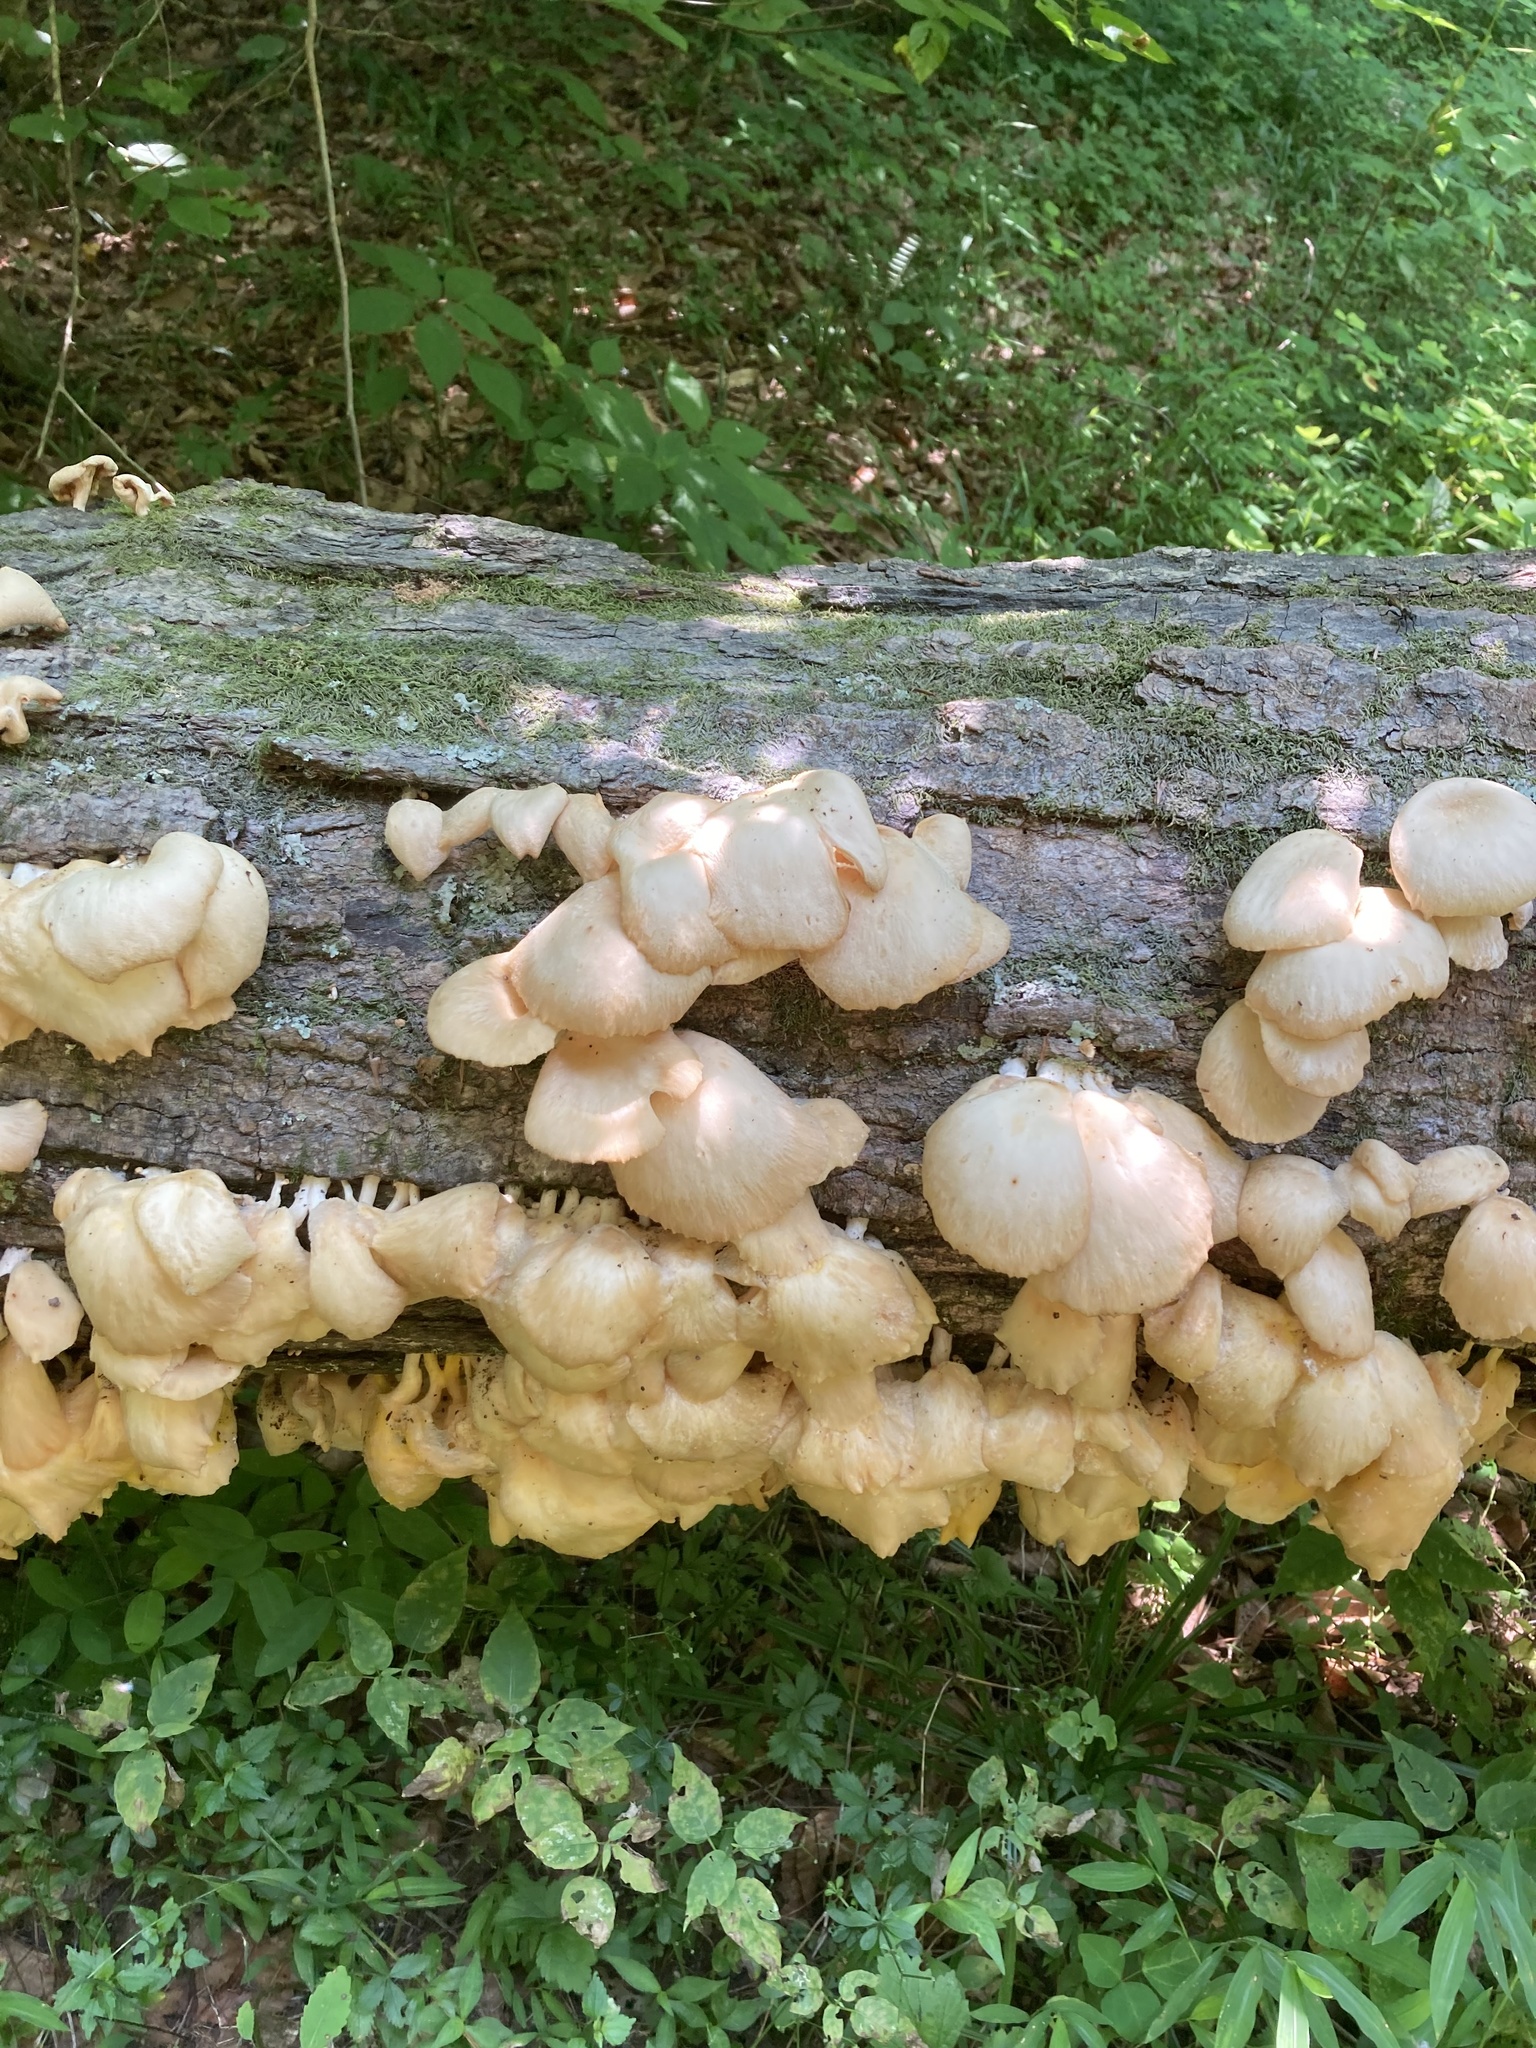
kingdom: Fungi
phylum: Basidiomycota
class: Agaricomycetes
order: Agaricales
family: Pleurotaceae
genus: Pleurotus
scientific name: Pleurotus pulmonarius
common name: Pale oyster
